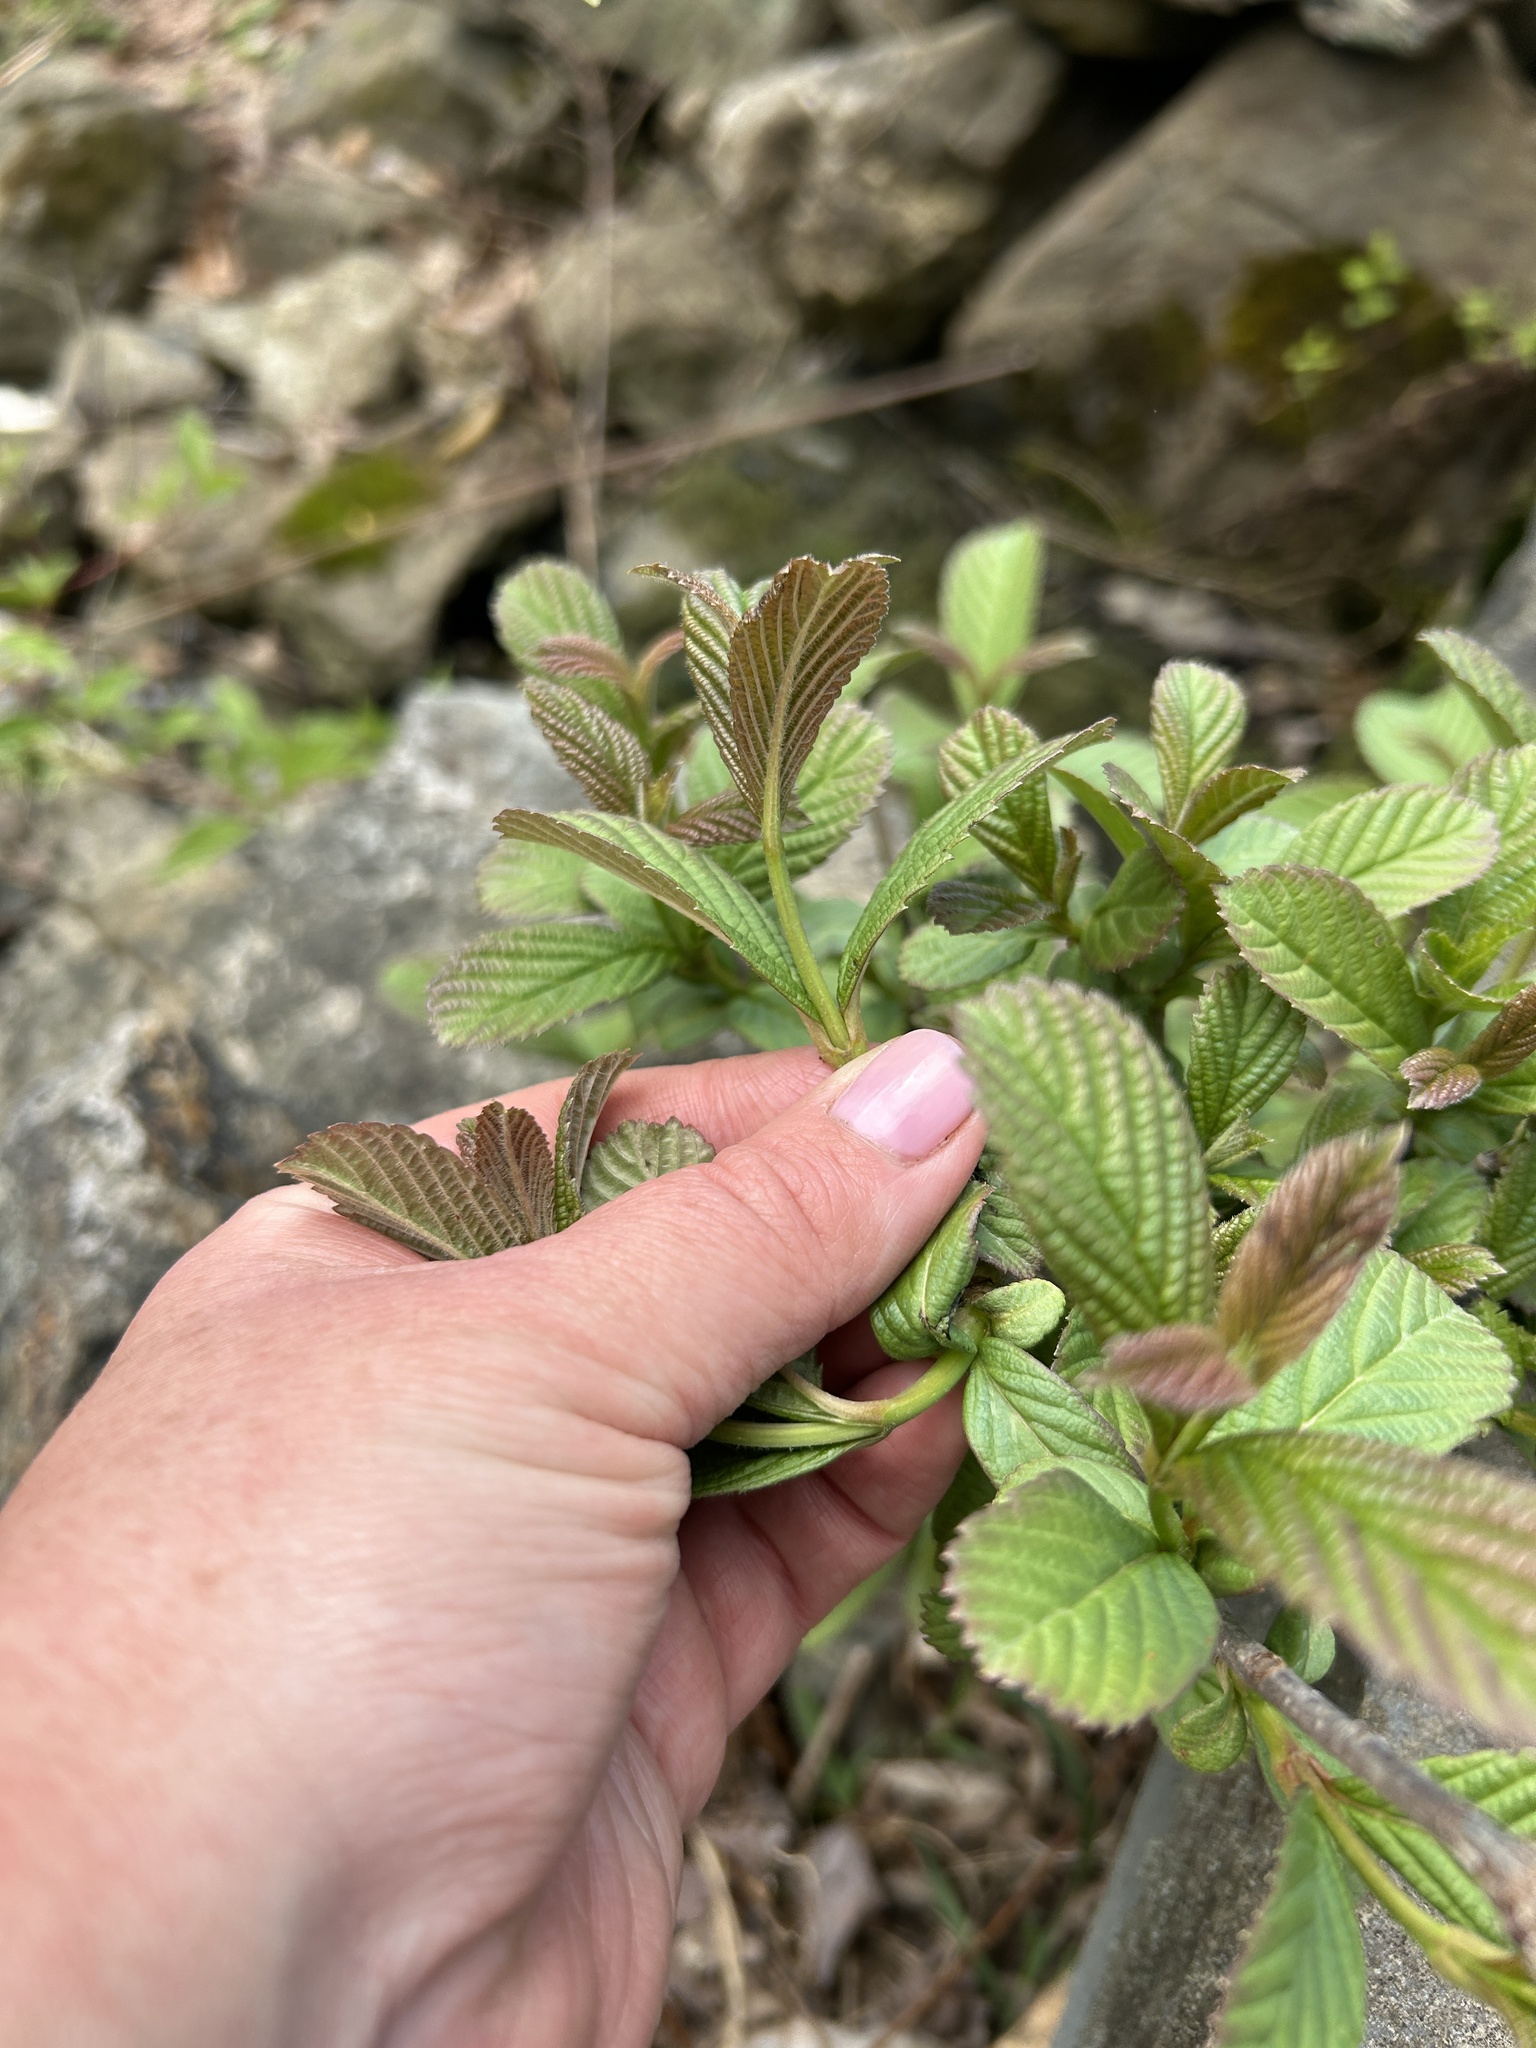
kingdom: Plantae
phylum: Tracheophyta
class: Magnoliopsida
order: Dipsacales
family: Viburnaceae
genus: Viburnum
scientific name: Viburnum sieboldii
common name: Siebold's arrowwood
